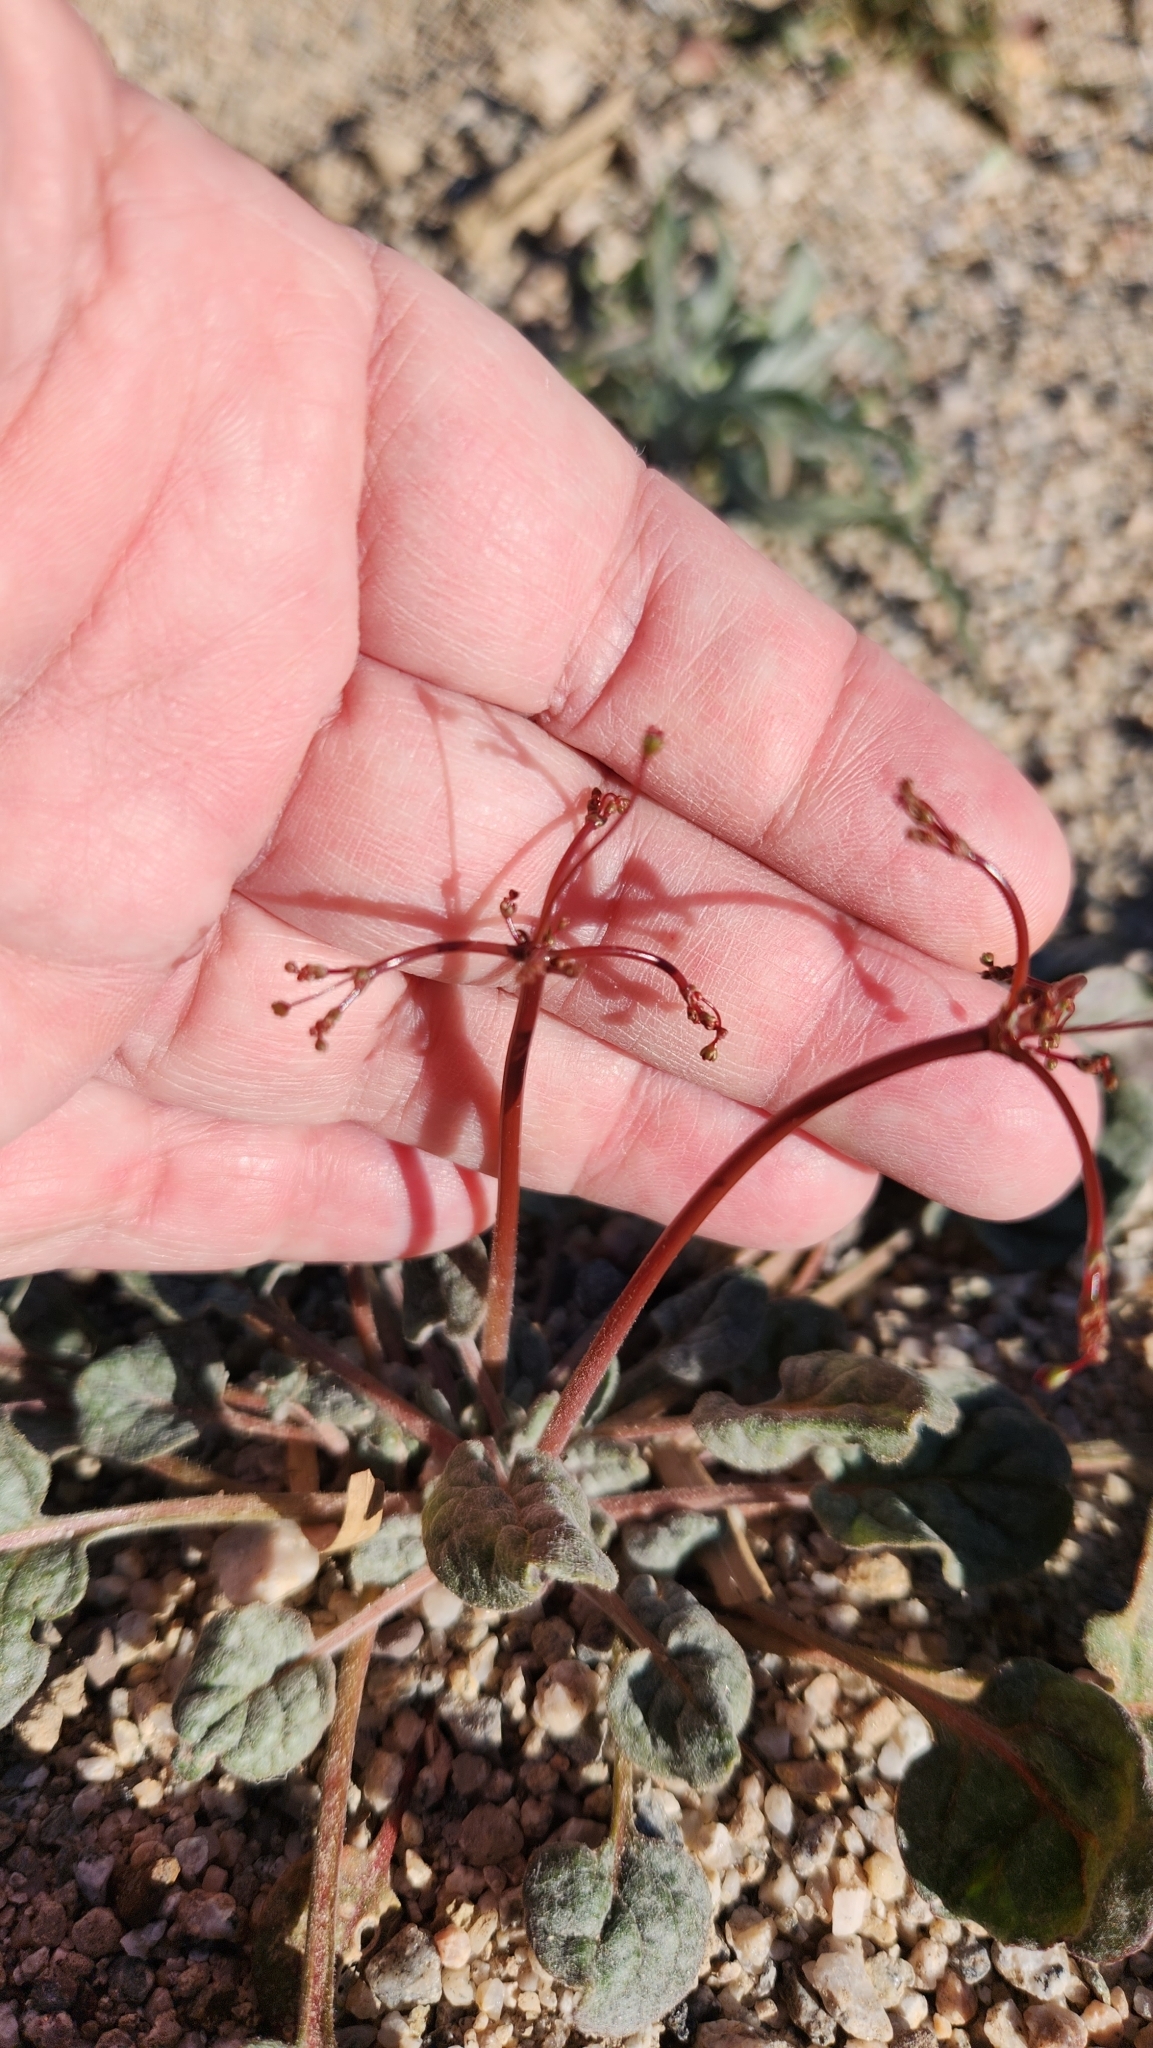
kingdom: Plantae
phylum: Tracheophyta
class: Magnoliopsida
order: Caryophyllales
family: Polygonaceae
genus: Eriogonum
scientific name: Eriogonum thomasii
